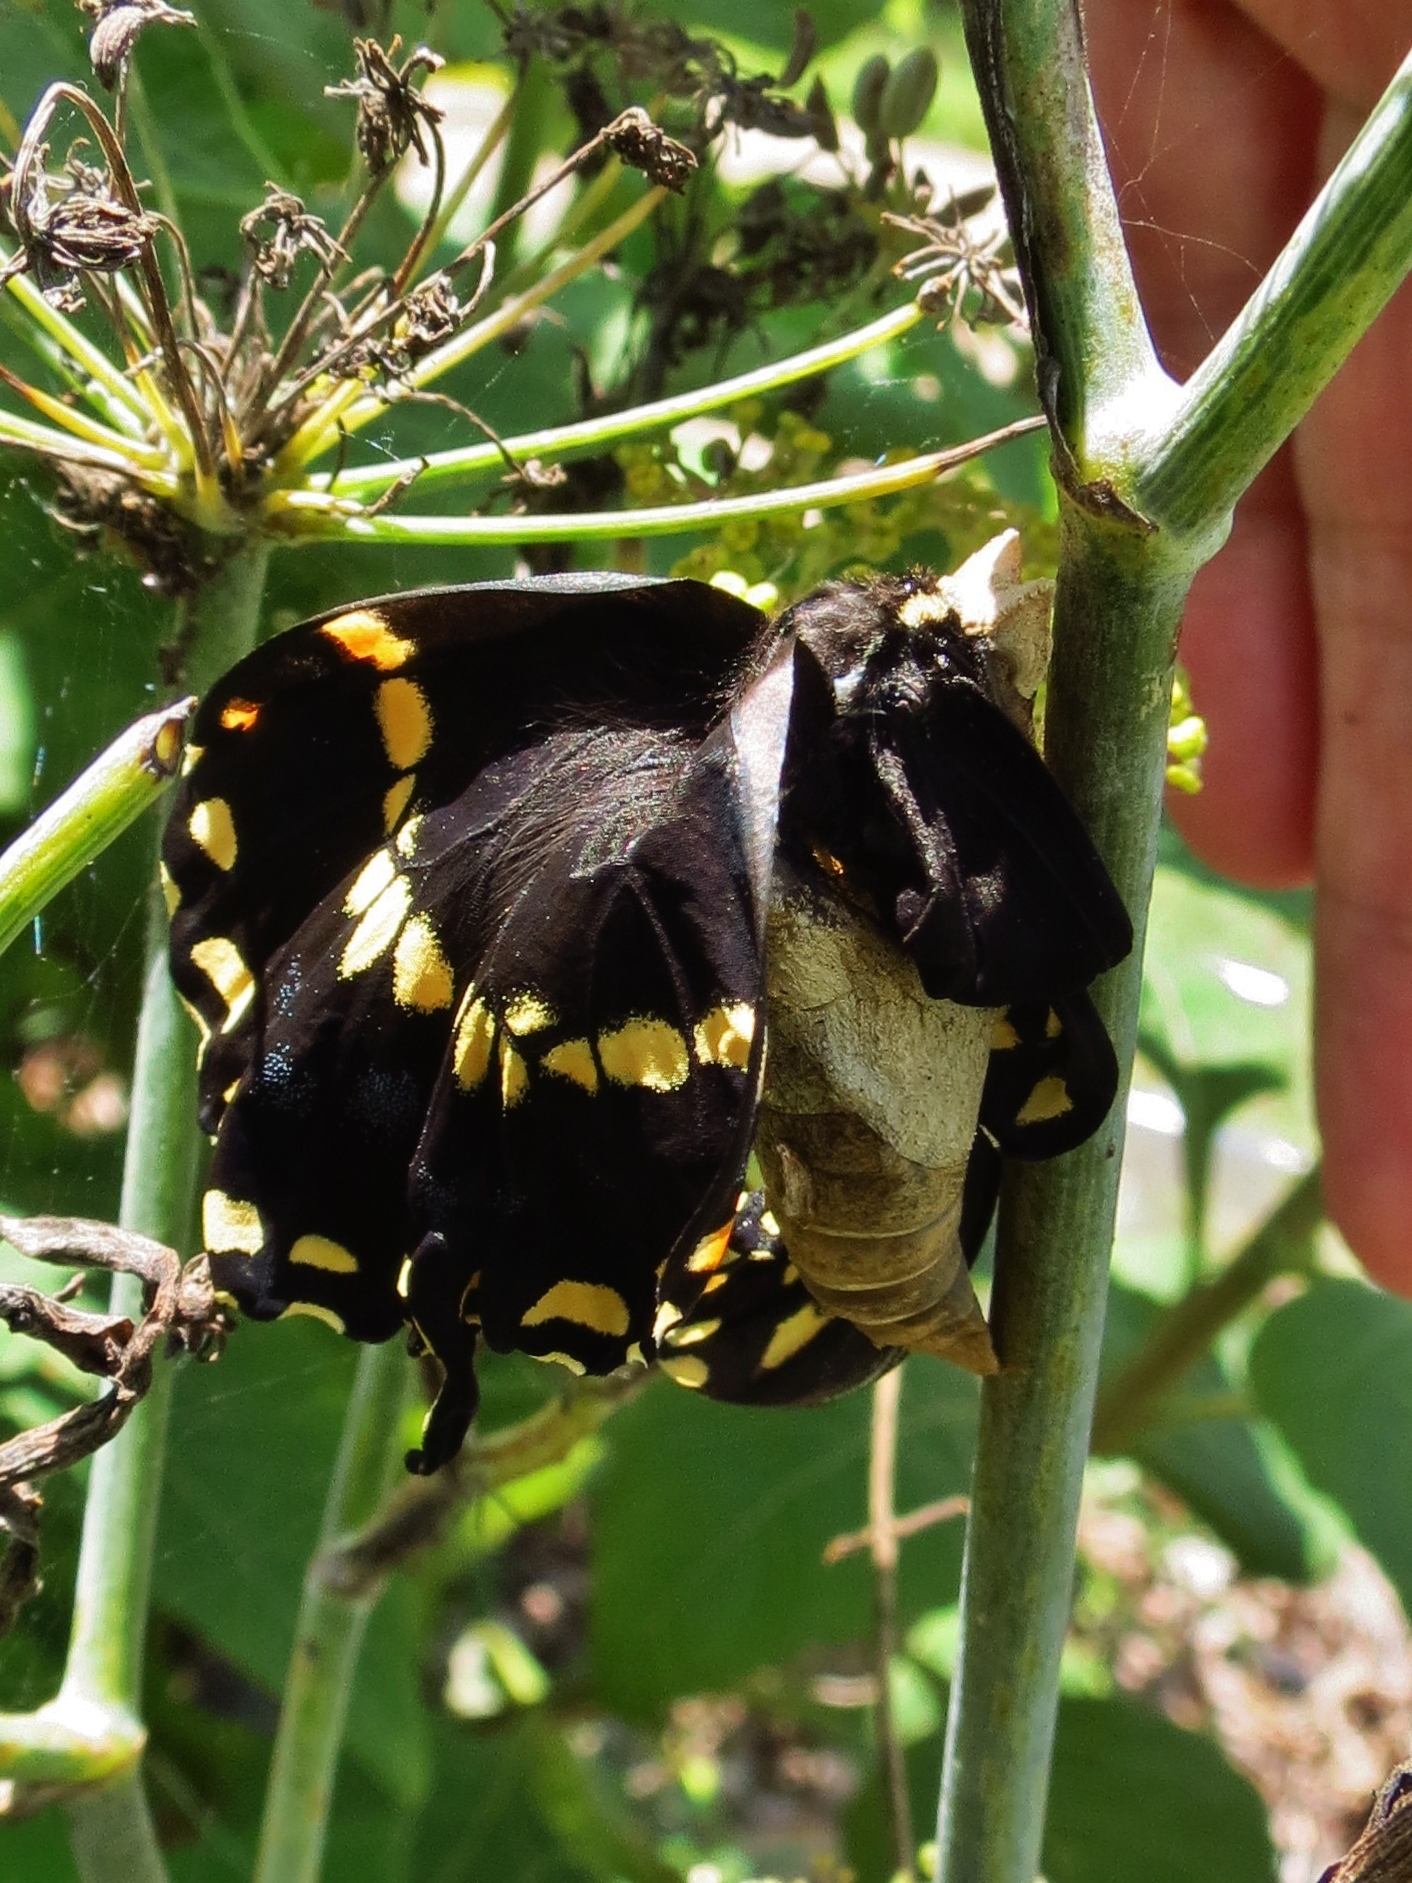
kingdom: Animalia
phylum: Arthropoda
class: Insecta
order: Lepidoptera
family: Papilionidae
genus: Papilio
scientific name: Papilio polyxenes
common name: Black swallowtail
